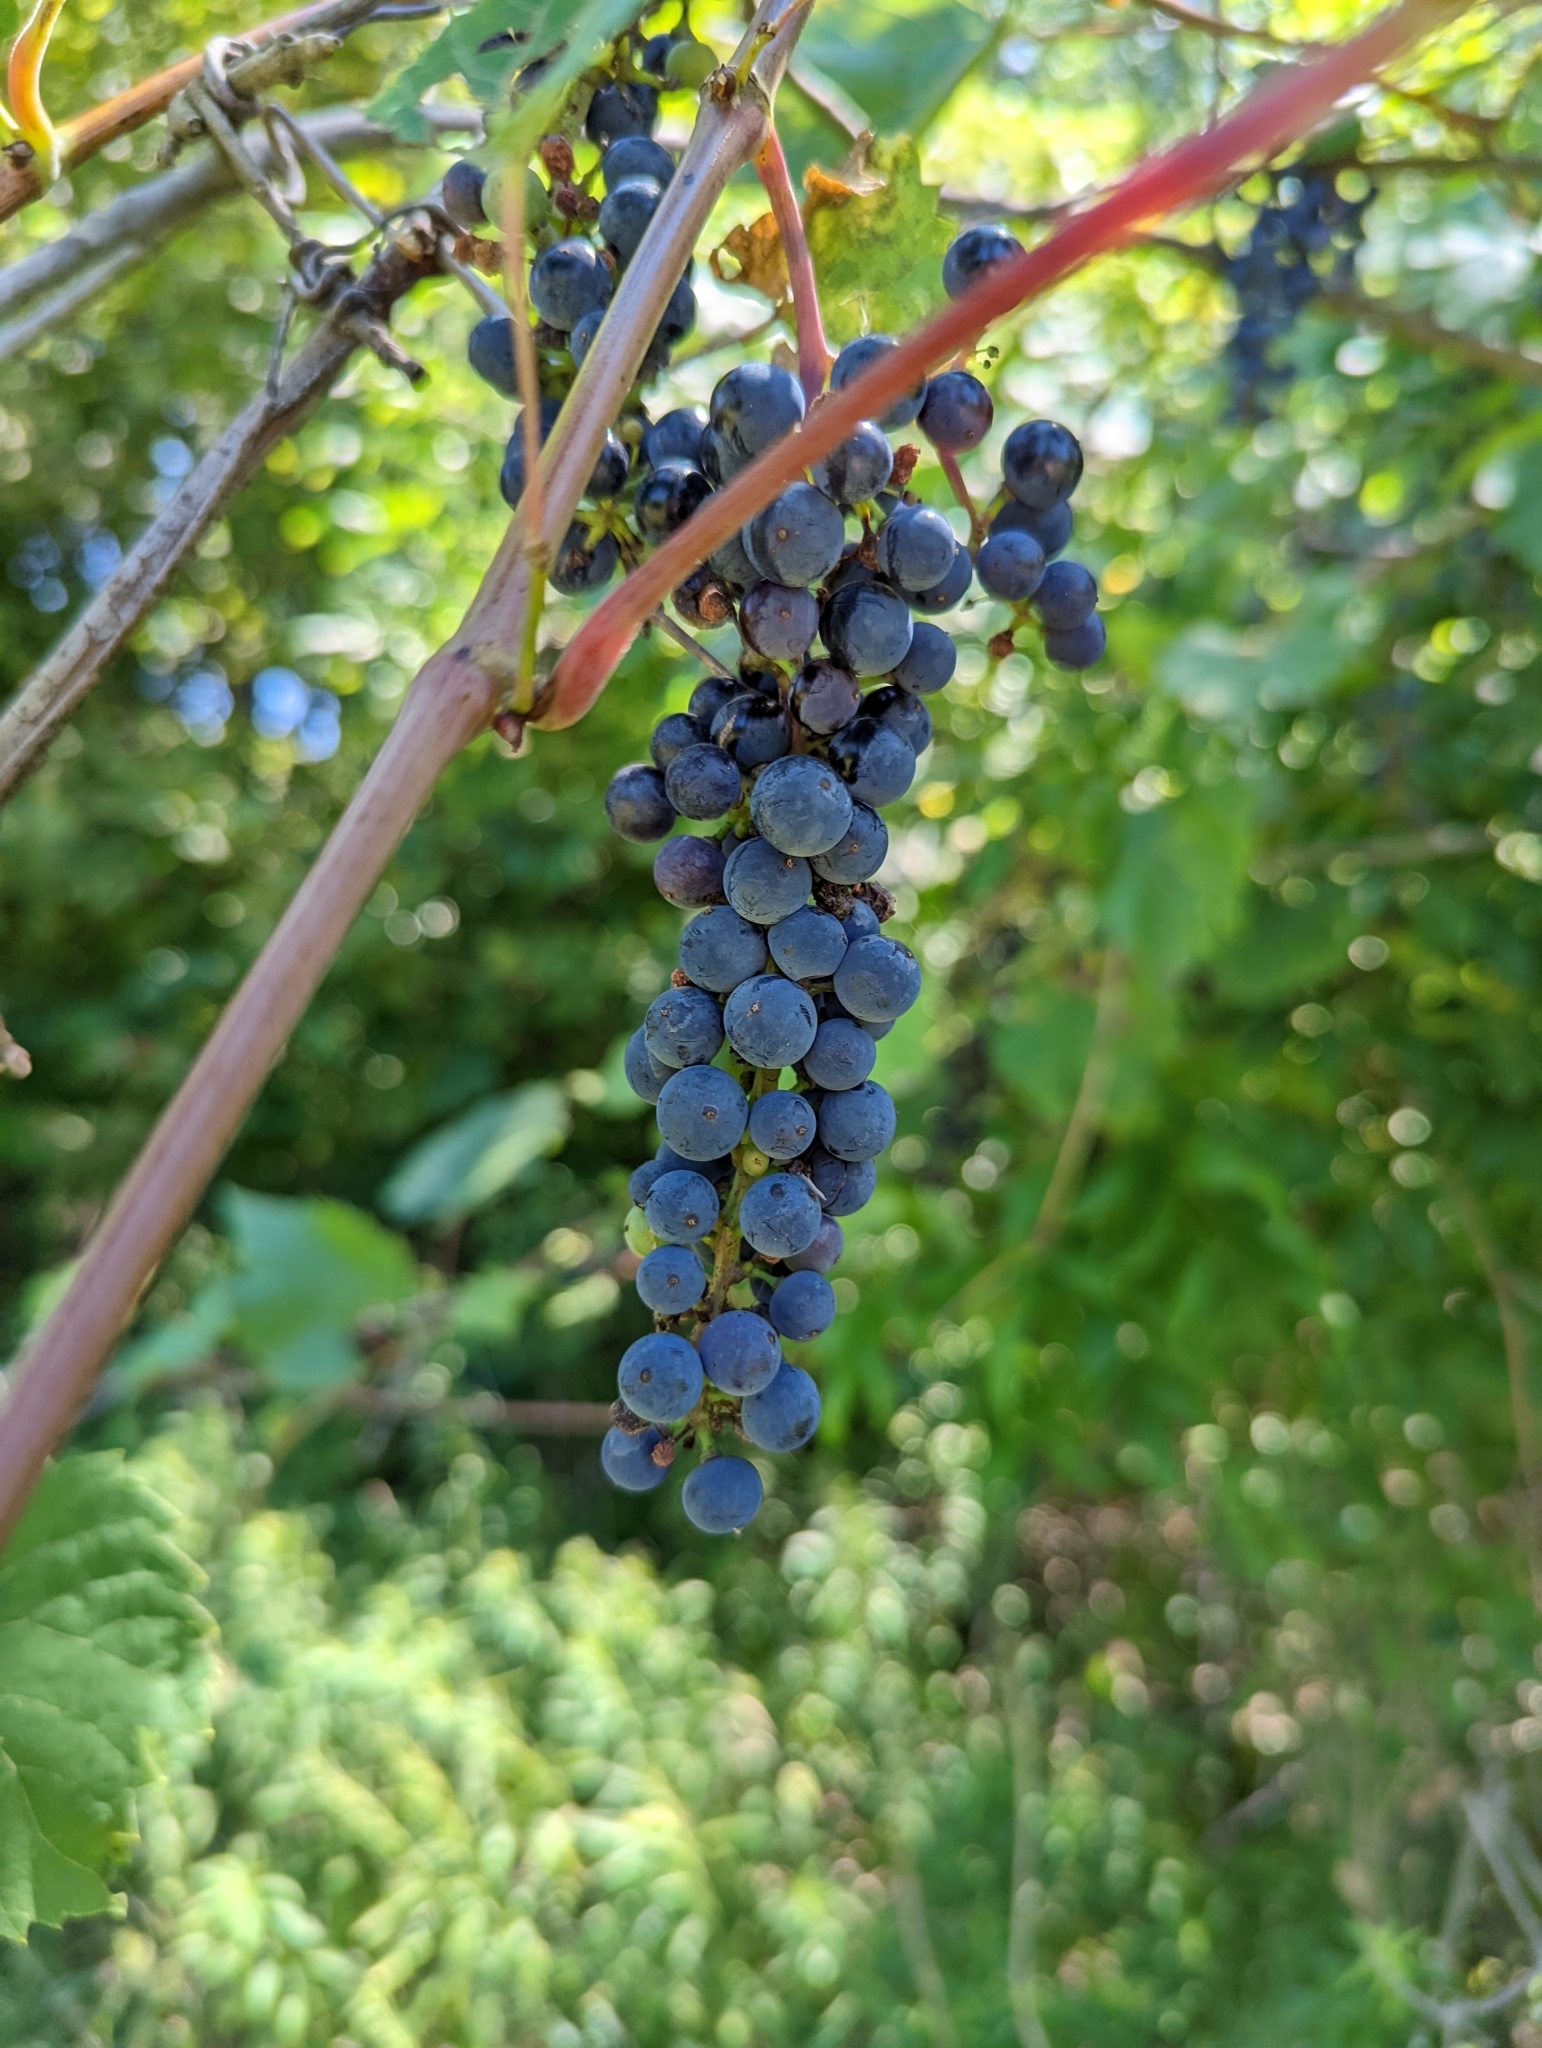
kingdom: Plantae
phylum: Tracheophyta
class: Magnoliopsida
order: Vitales
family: Vitaceae
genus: Vitis
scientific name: Vitis riparia
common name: Frost grape
